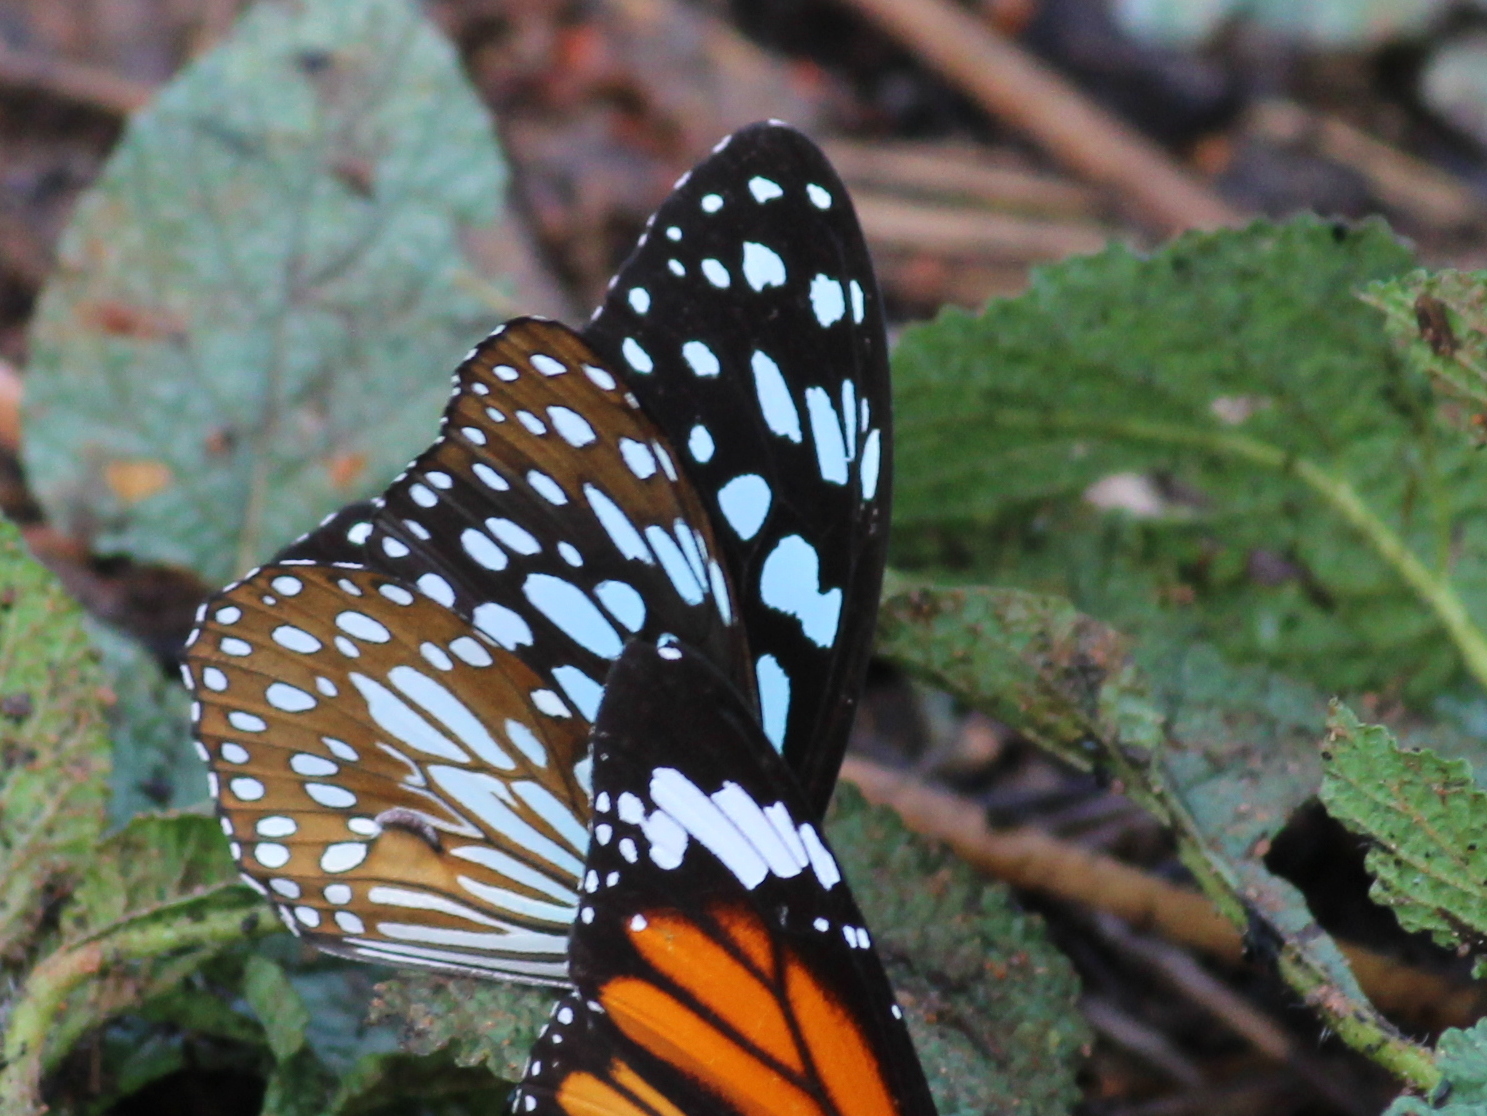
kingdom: Animalia
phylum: Arthropoda
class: Insecta
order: Lepidoptera
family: Nymphalidae
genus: Tirumala
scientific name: Tirumala limniace
